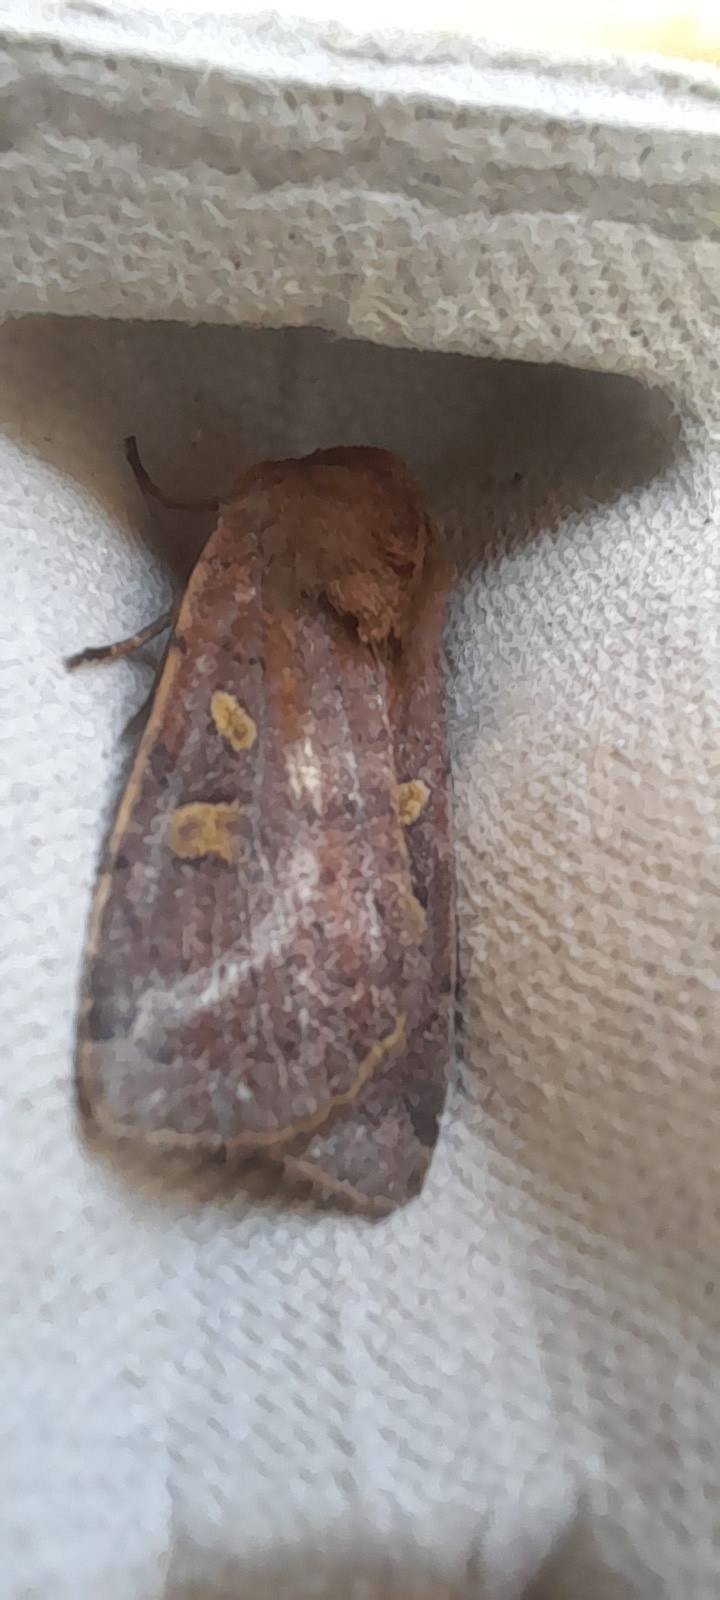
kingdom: Animalia
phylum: Arthropoda
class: Insecta
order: Lepidoptera
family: Noctuidae
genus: Xestia
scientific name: Xestia xanthographa
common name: Square-spot rustic
